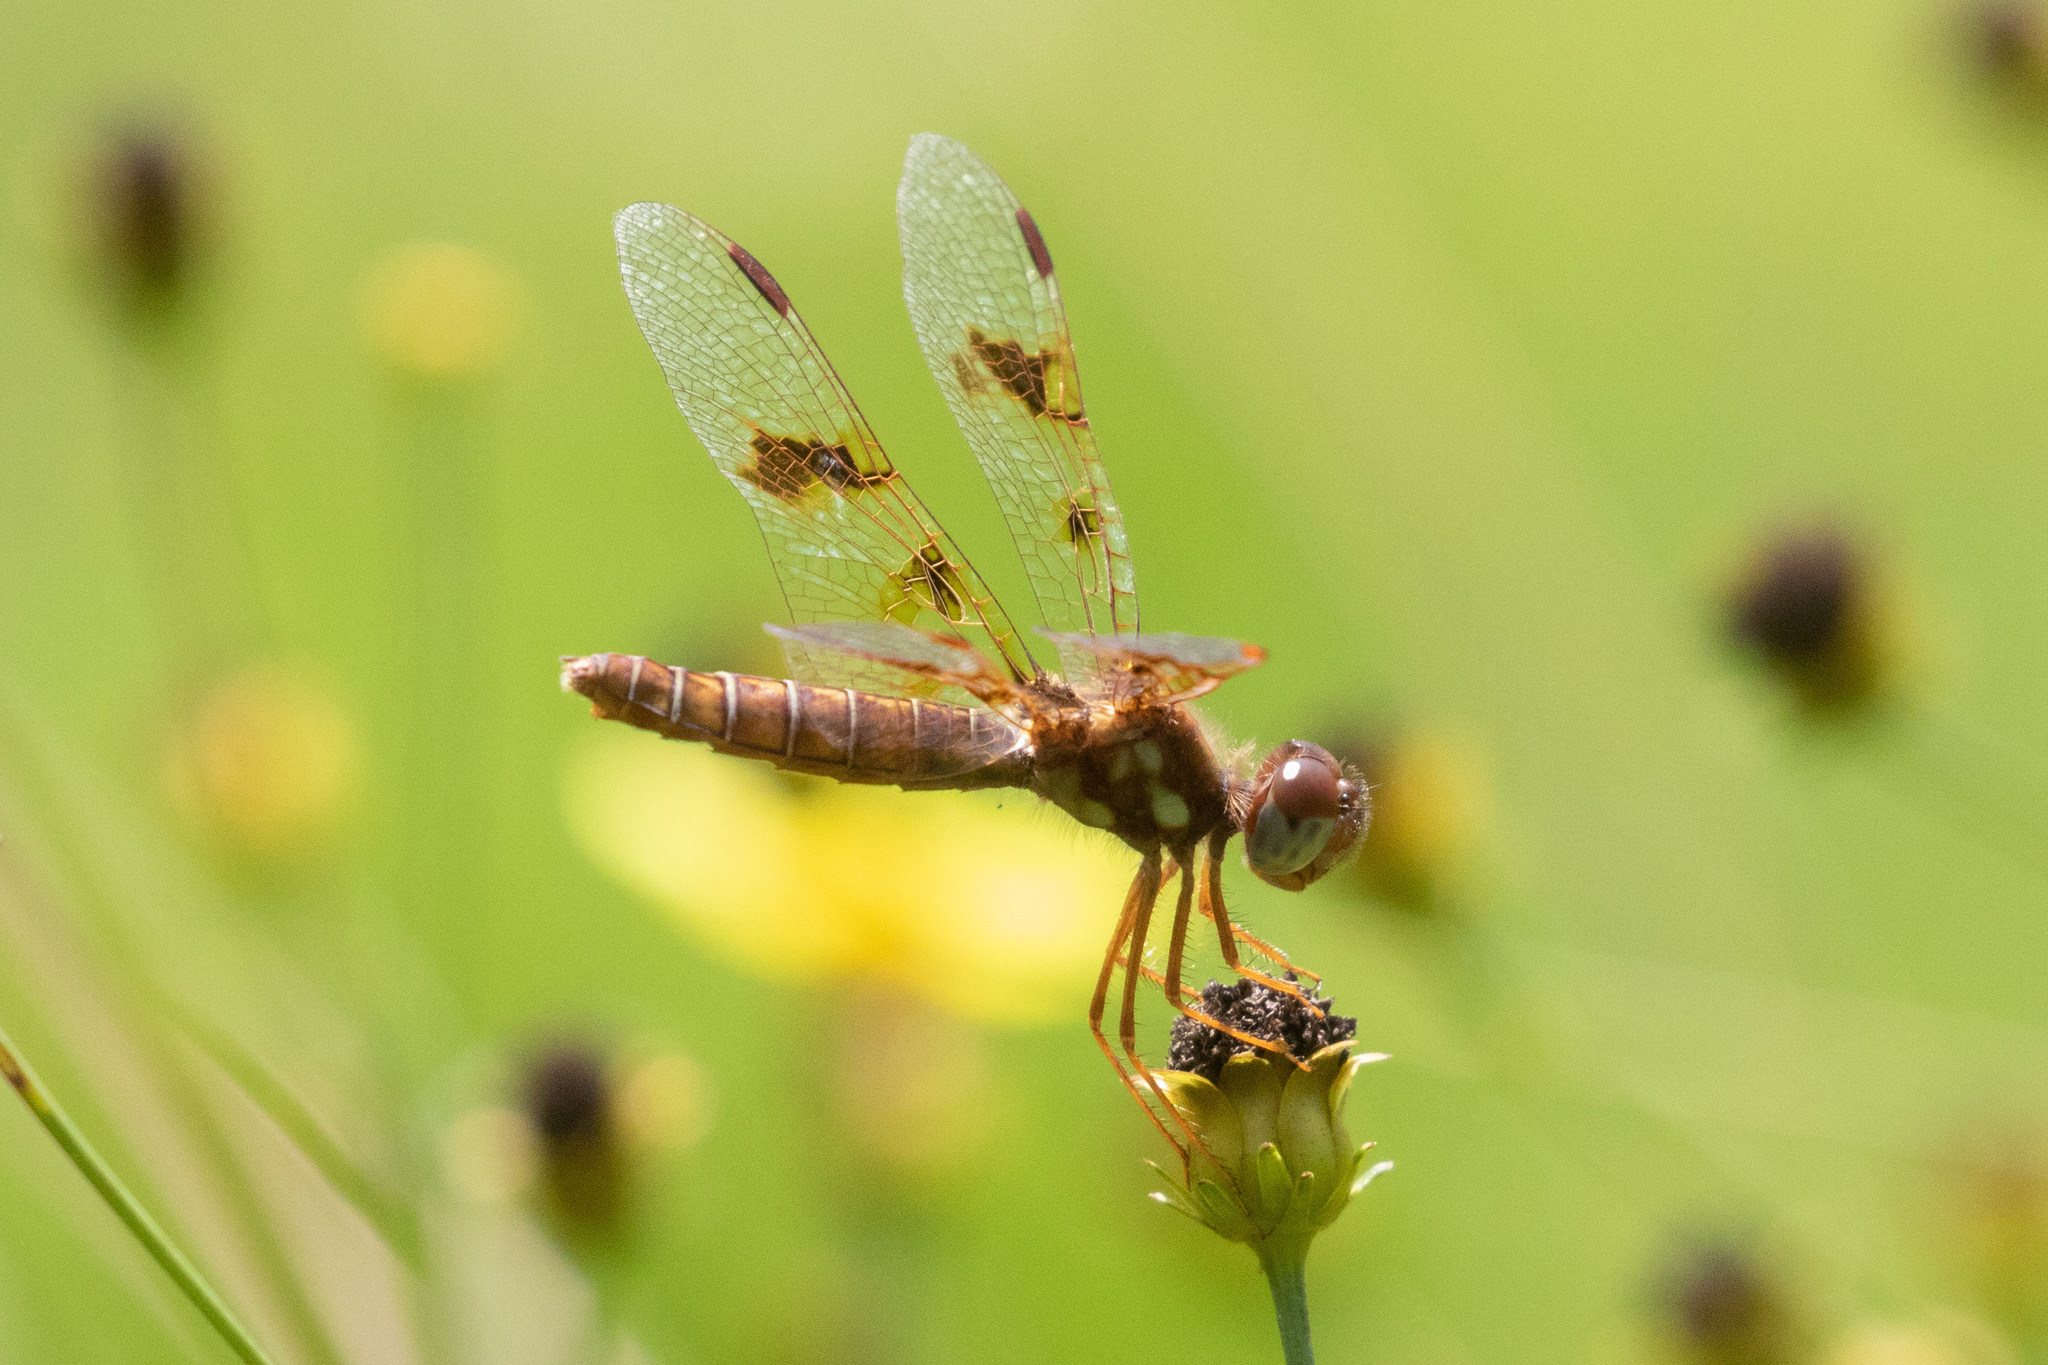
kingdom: Animalia
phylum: Arthropoda
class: Insecta
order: Odonata
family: Libellulidae
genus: Perithemis
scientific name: Perithemis tenera
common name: Eastern amberwing
